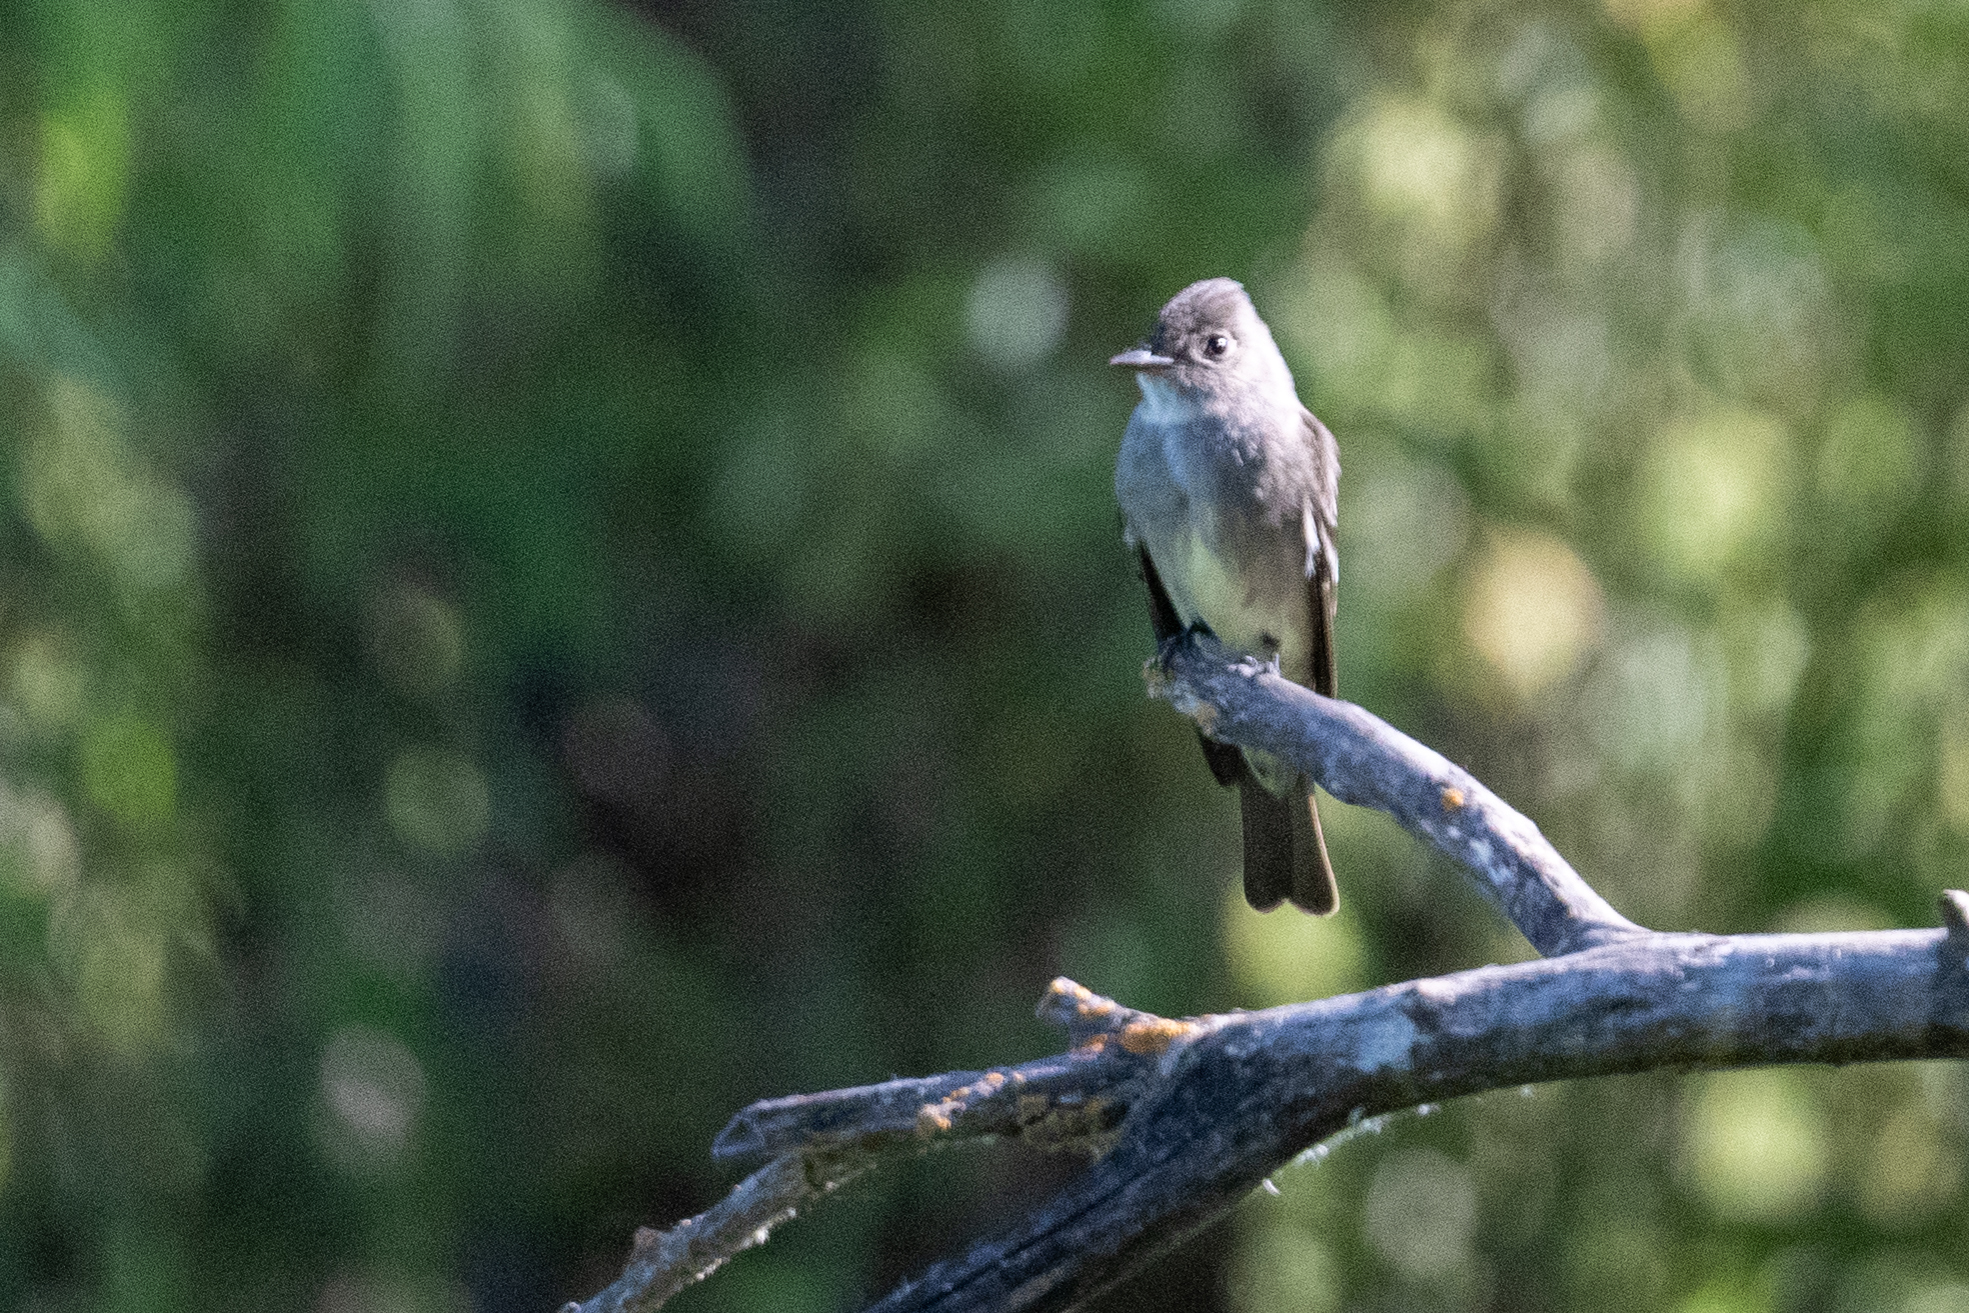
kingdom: Animalia
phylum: Chordata
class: Aves
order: Passeriformes
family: Tyrannidae
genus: Contopus
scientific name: Contopus sordidulus
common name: Western wood-pewee
